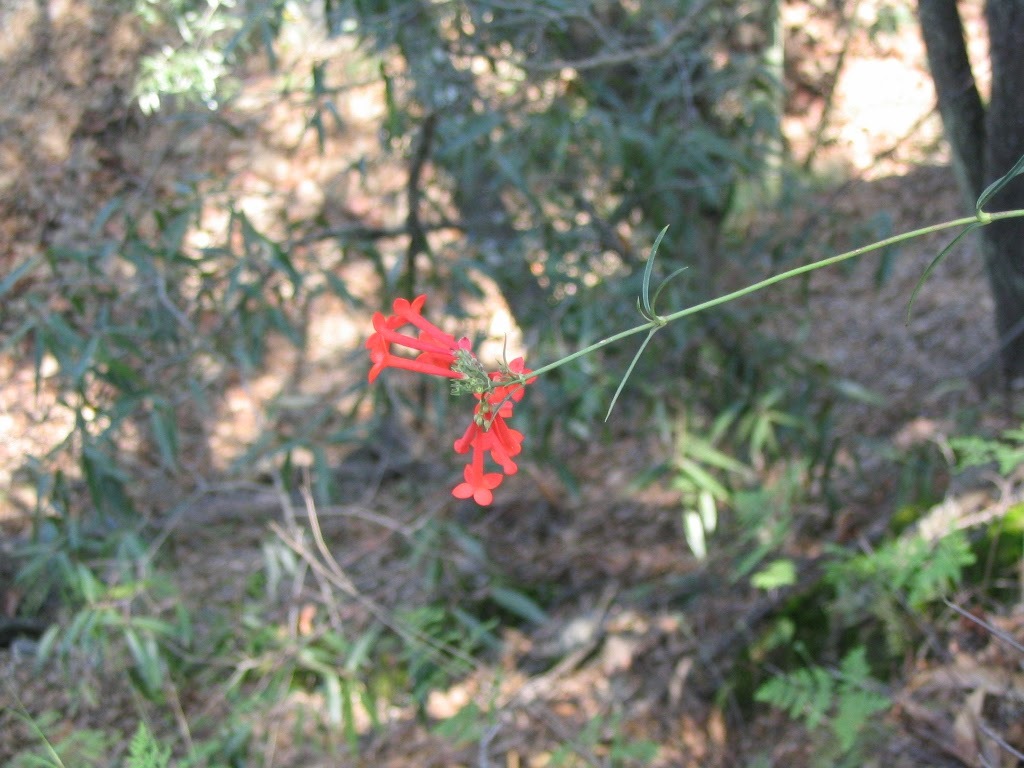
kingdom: Plantae
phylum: Tracheophyta
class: Magnoliopsida
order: Gentianales
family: Rubiaceae
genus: Bouvardia
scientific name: Bouvardia ternifolia
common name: Scarlet bouvardia
